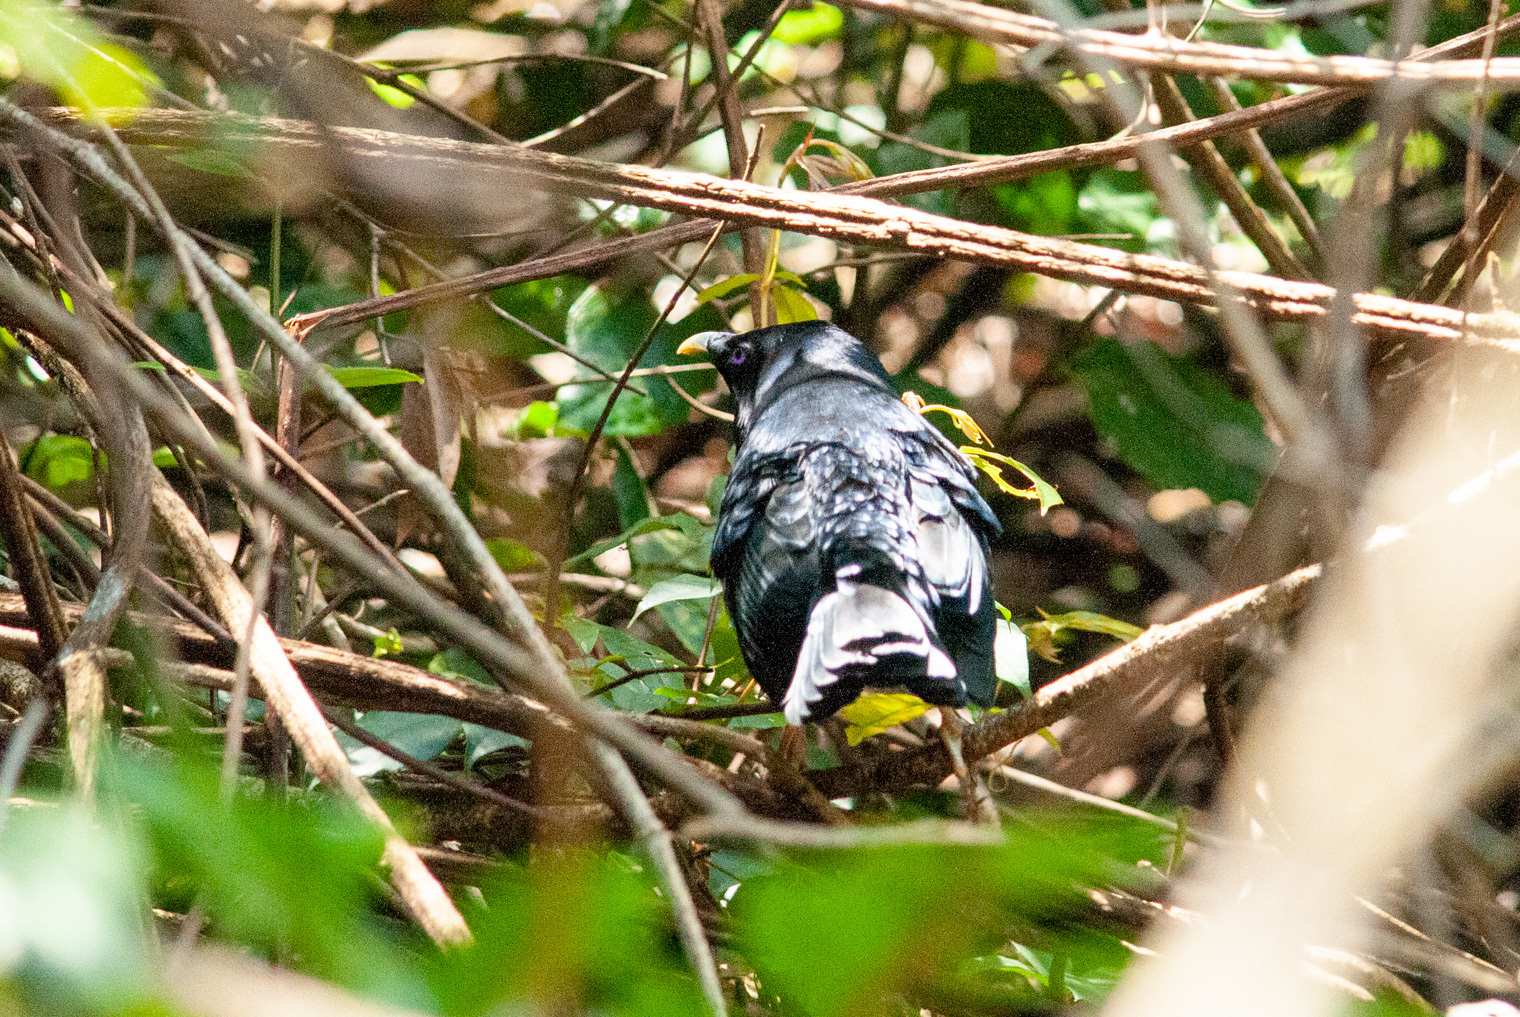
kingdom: Animalia
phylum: Chordata
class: Aves
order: Passeriformes
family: Ptilonorhynchidae
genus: Ptilonorhynchus
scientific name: Ptilonorhynchus violaceus
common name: Satin bowerbird
